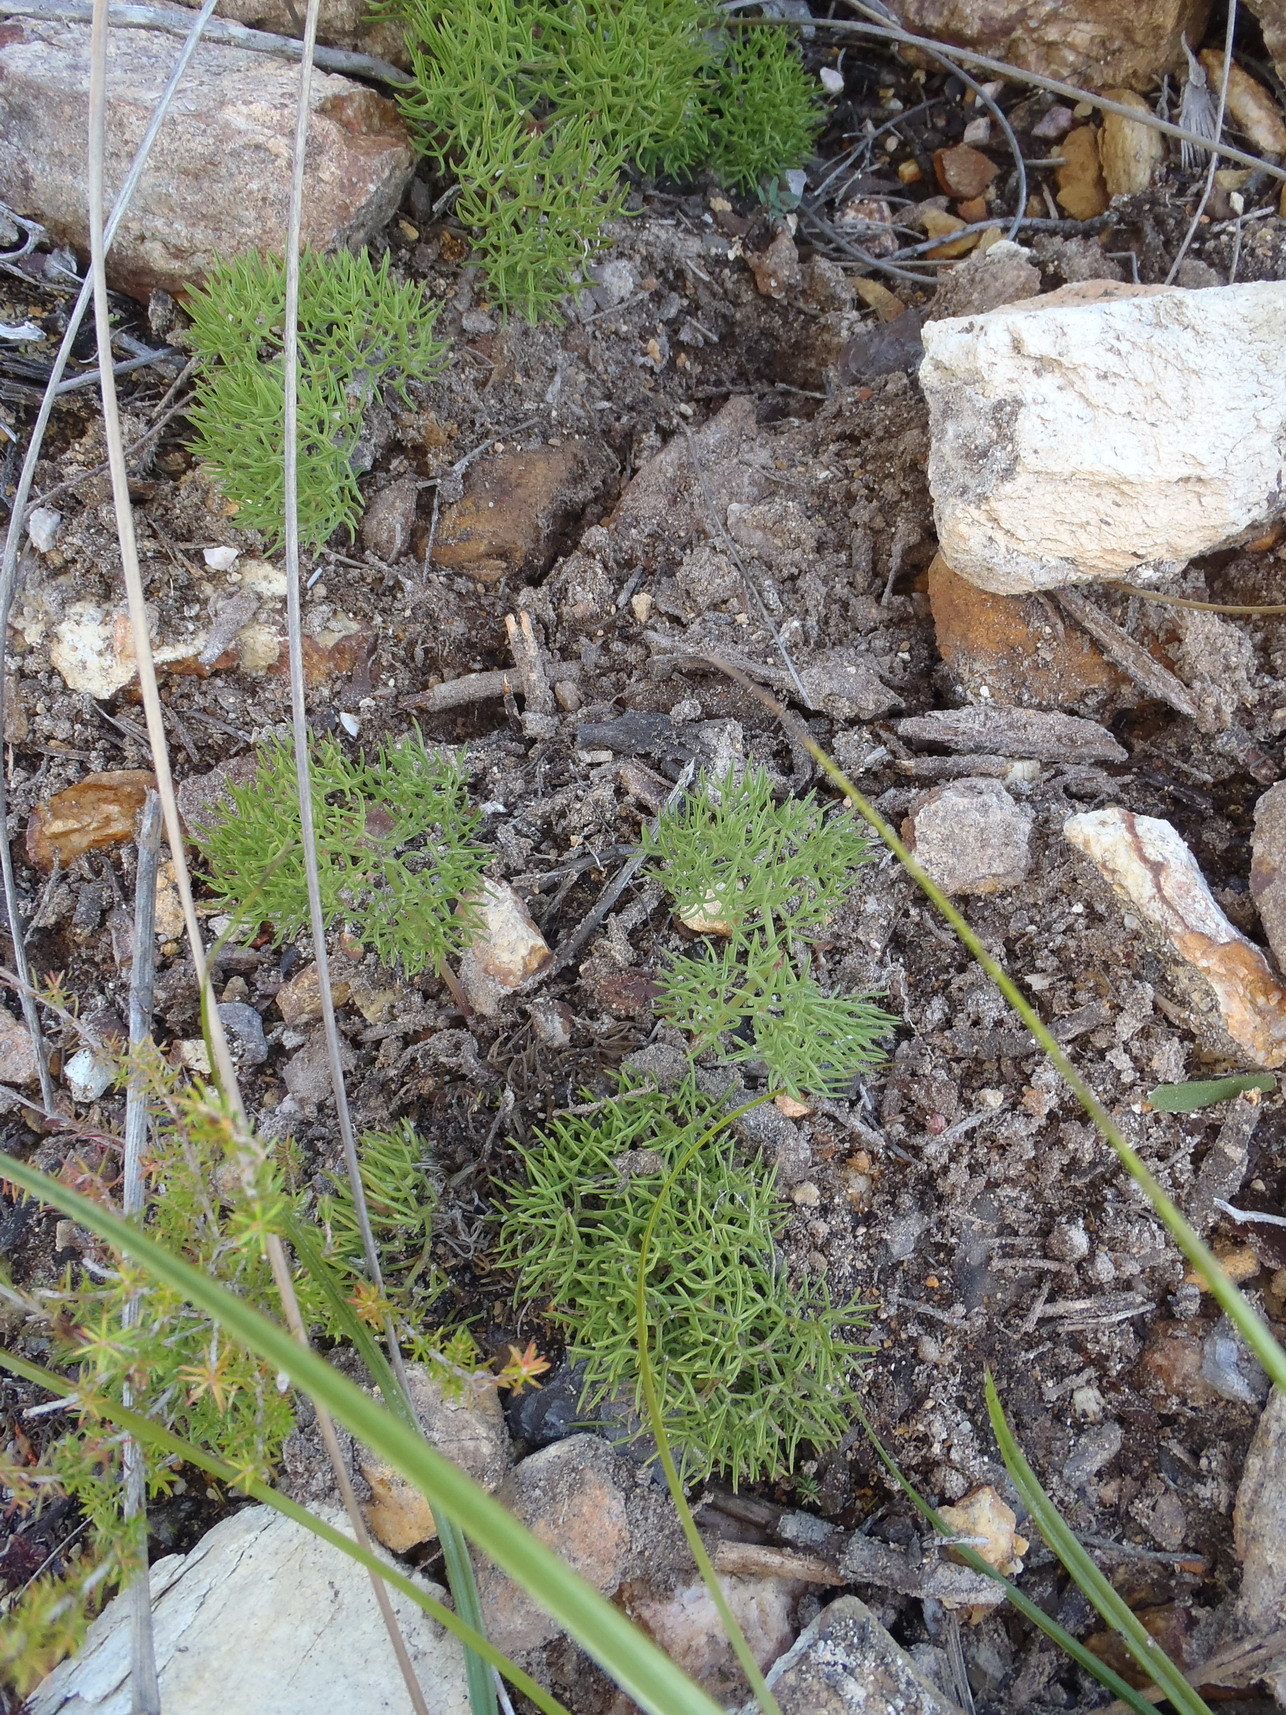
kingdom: Plantae
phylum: Tracheophyta
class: Magnoliopsida
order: Apiales
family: Apiaceae
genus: Nanobubon
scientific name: Nanobubon capillaceum
